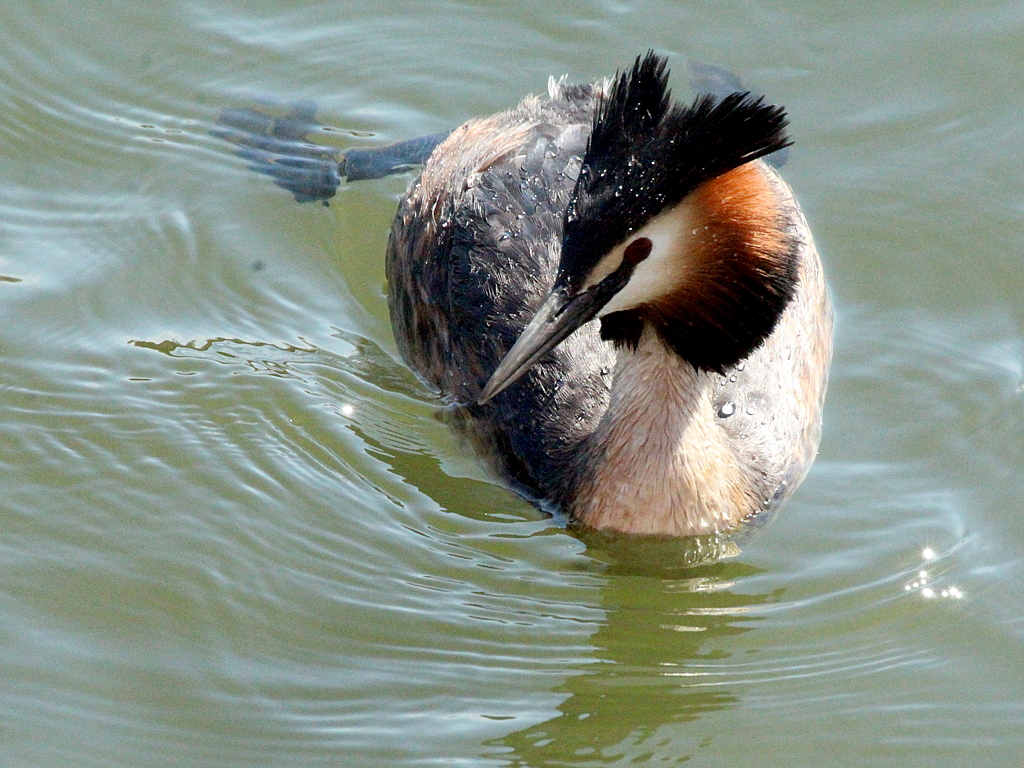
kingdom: Animalia
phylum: Chordata
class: Aves
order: Podicipediformes
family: Podicipedidae
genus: Podiceps
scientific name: Podiceps cristatus
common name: Great crested grebe
